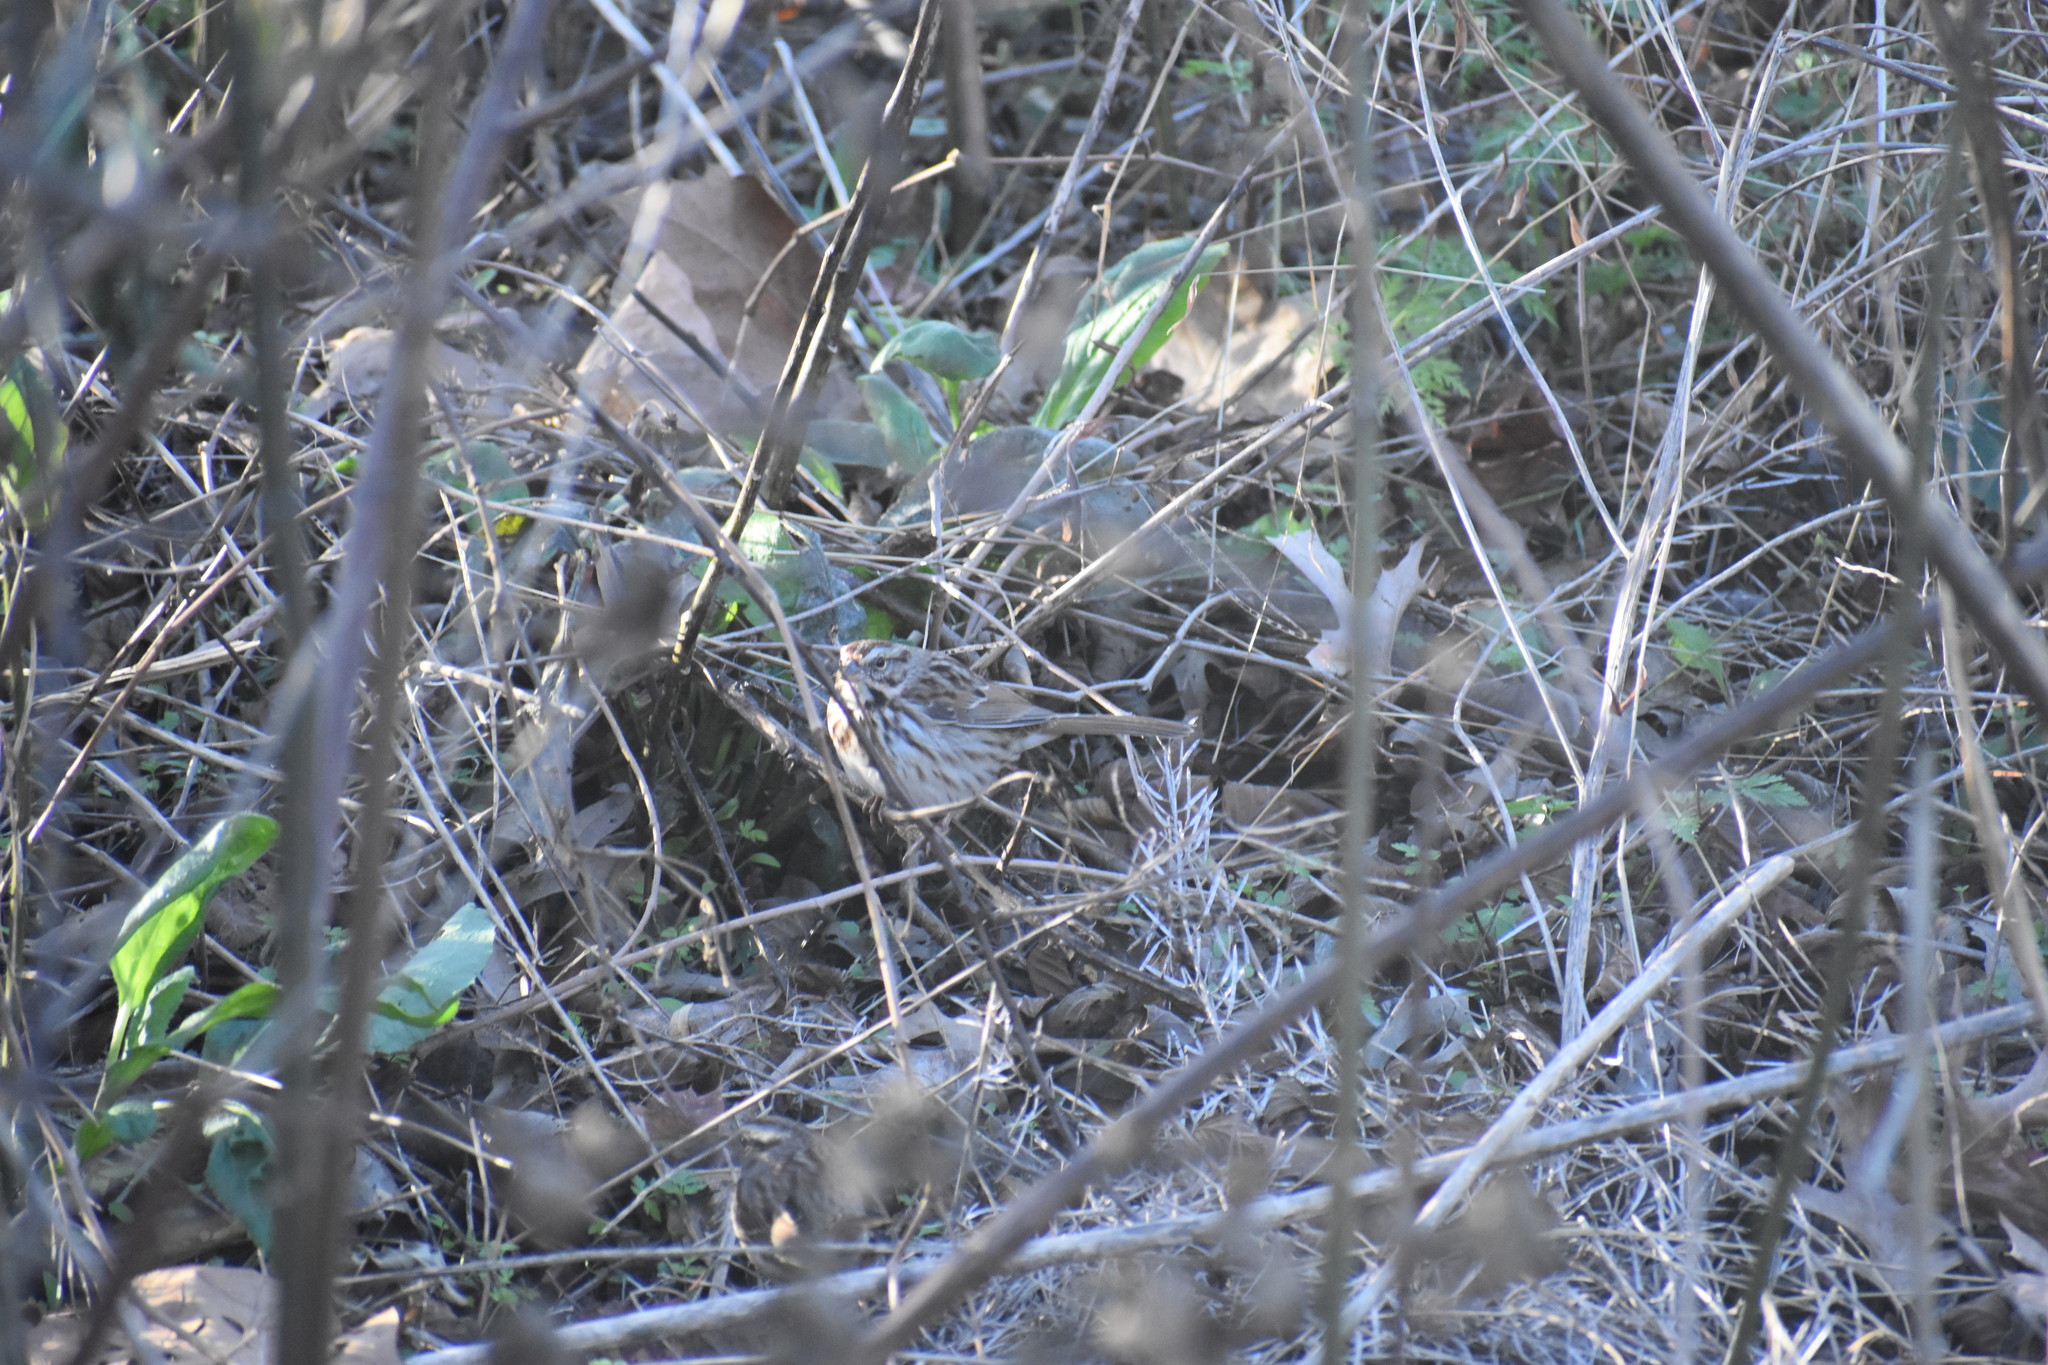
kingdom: Animalia
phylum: Chordata
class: Aves
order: Passeriformes
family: Passerellidae
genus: Melospiza
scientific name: Melospiza melodia
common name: Song sparrow
